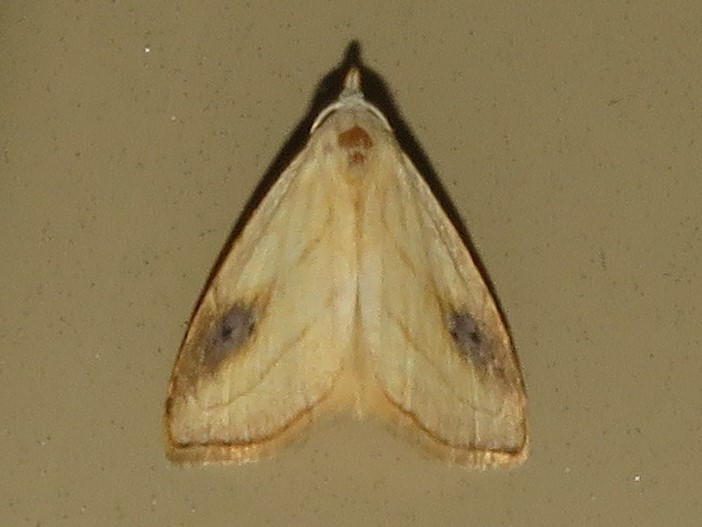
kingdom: Animalia
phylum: Arthropoda
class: Insecta
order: Lepidoptera
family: Erebidae
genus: Rivula
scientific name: Rivula propinqualis
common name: Spotted grass moth
